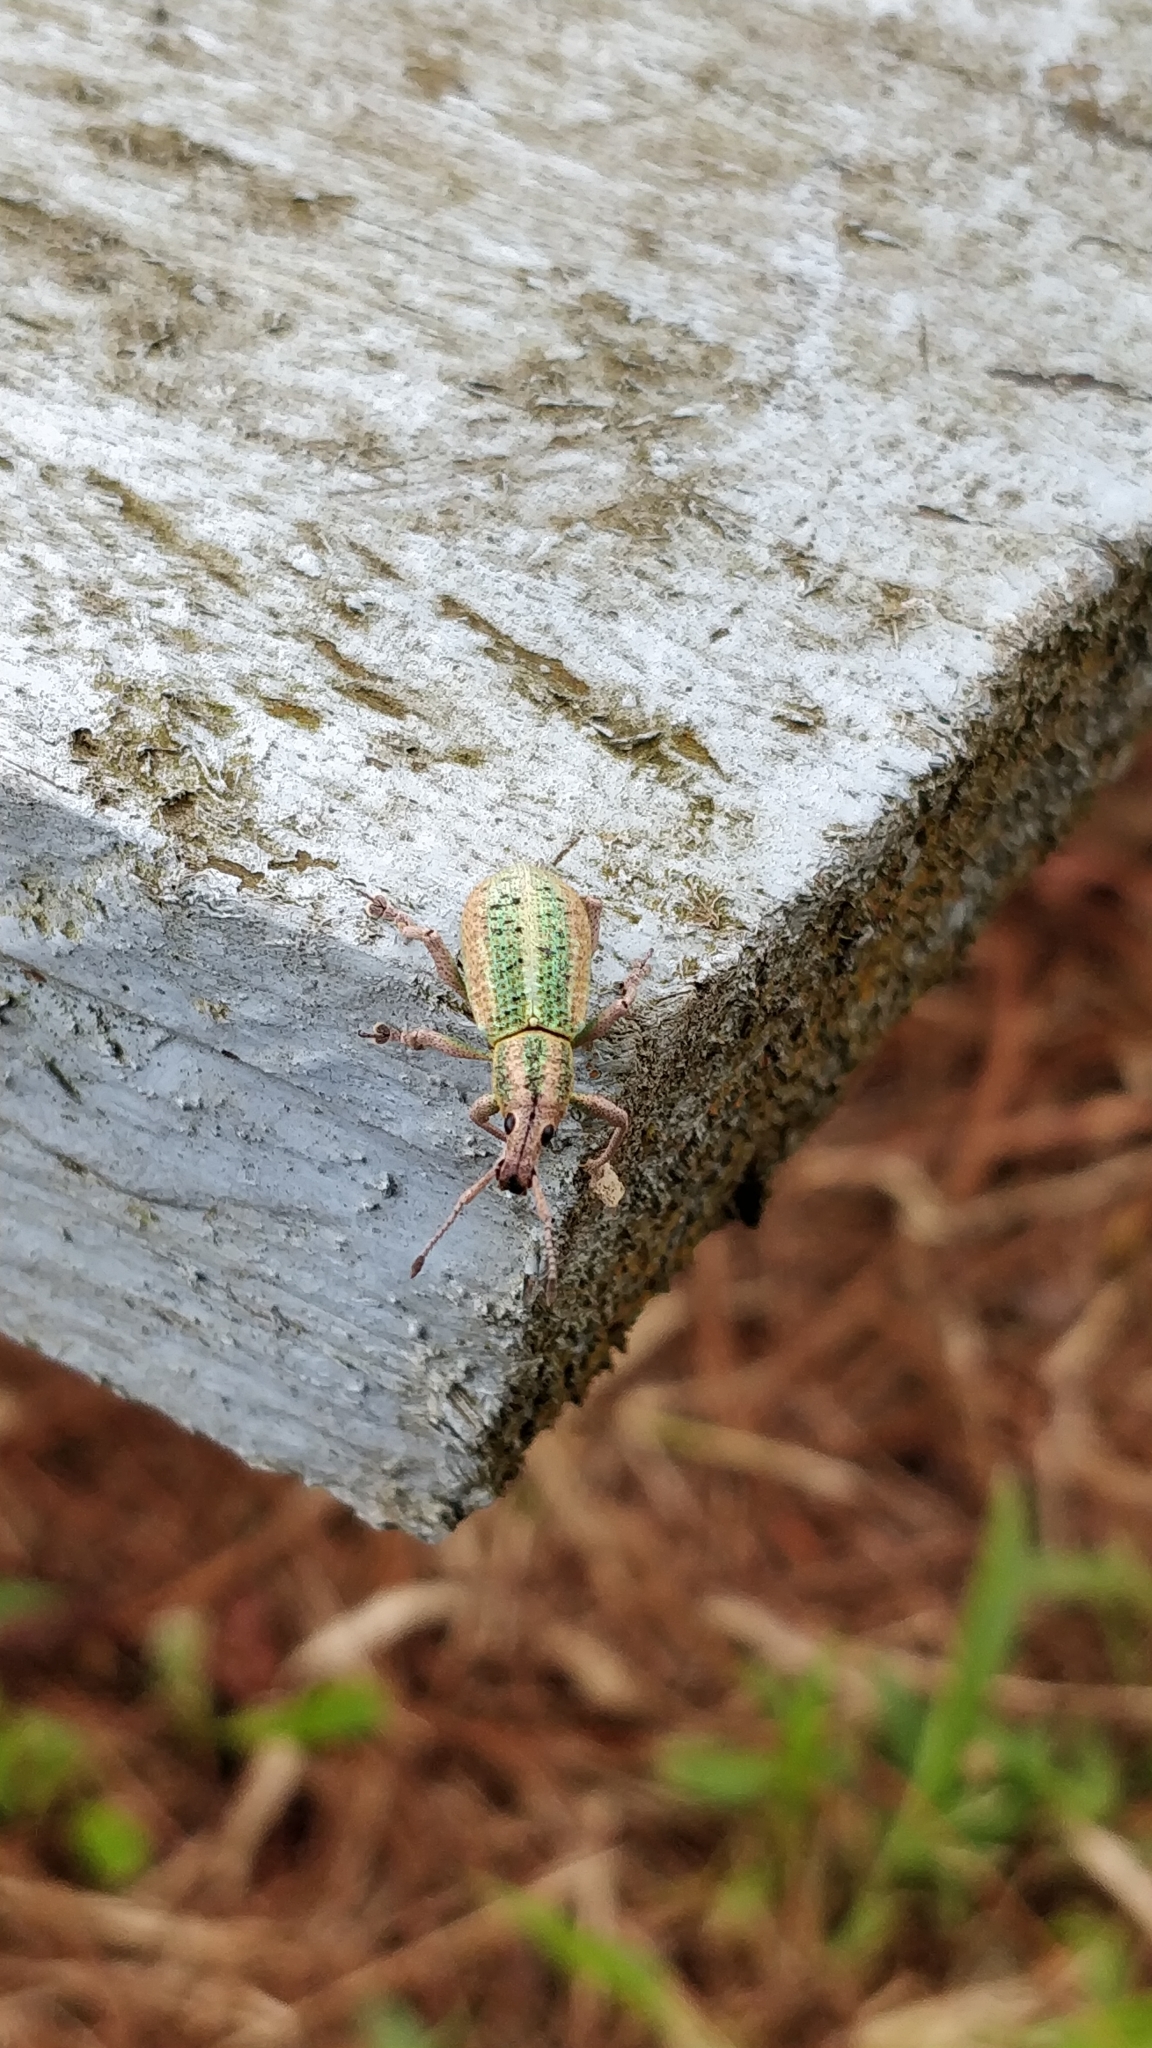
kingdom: Animalia
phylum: Arthropoda
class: Insecta
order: Coleoptera
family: Curculionidae
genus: Exophthalmus
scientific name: Exophthalmus bilineatus
